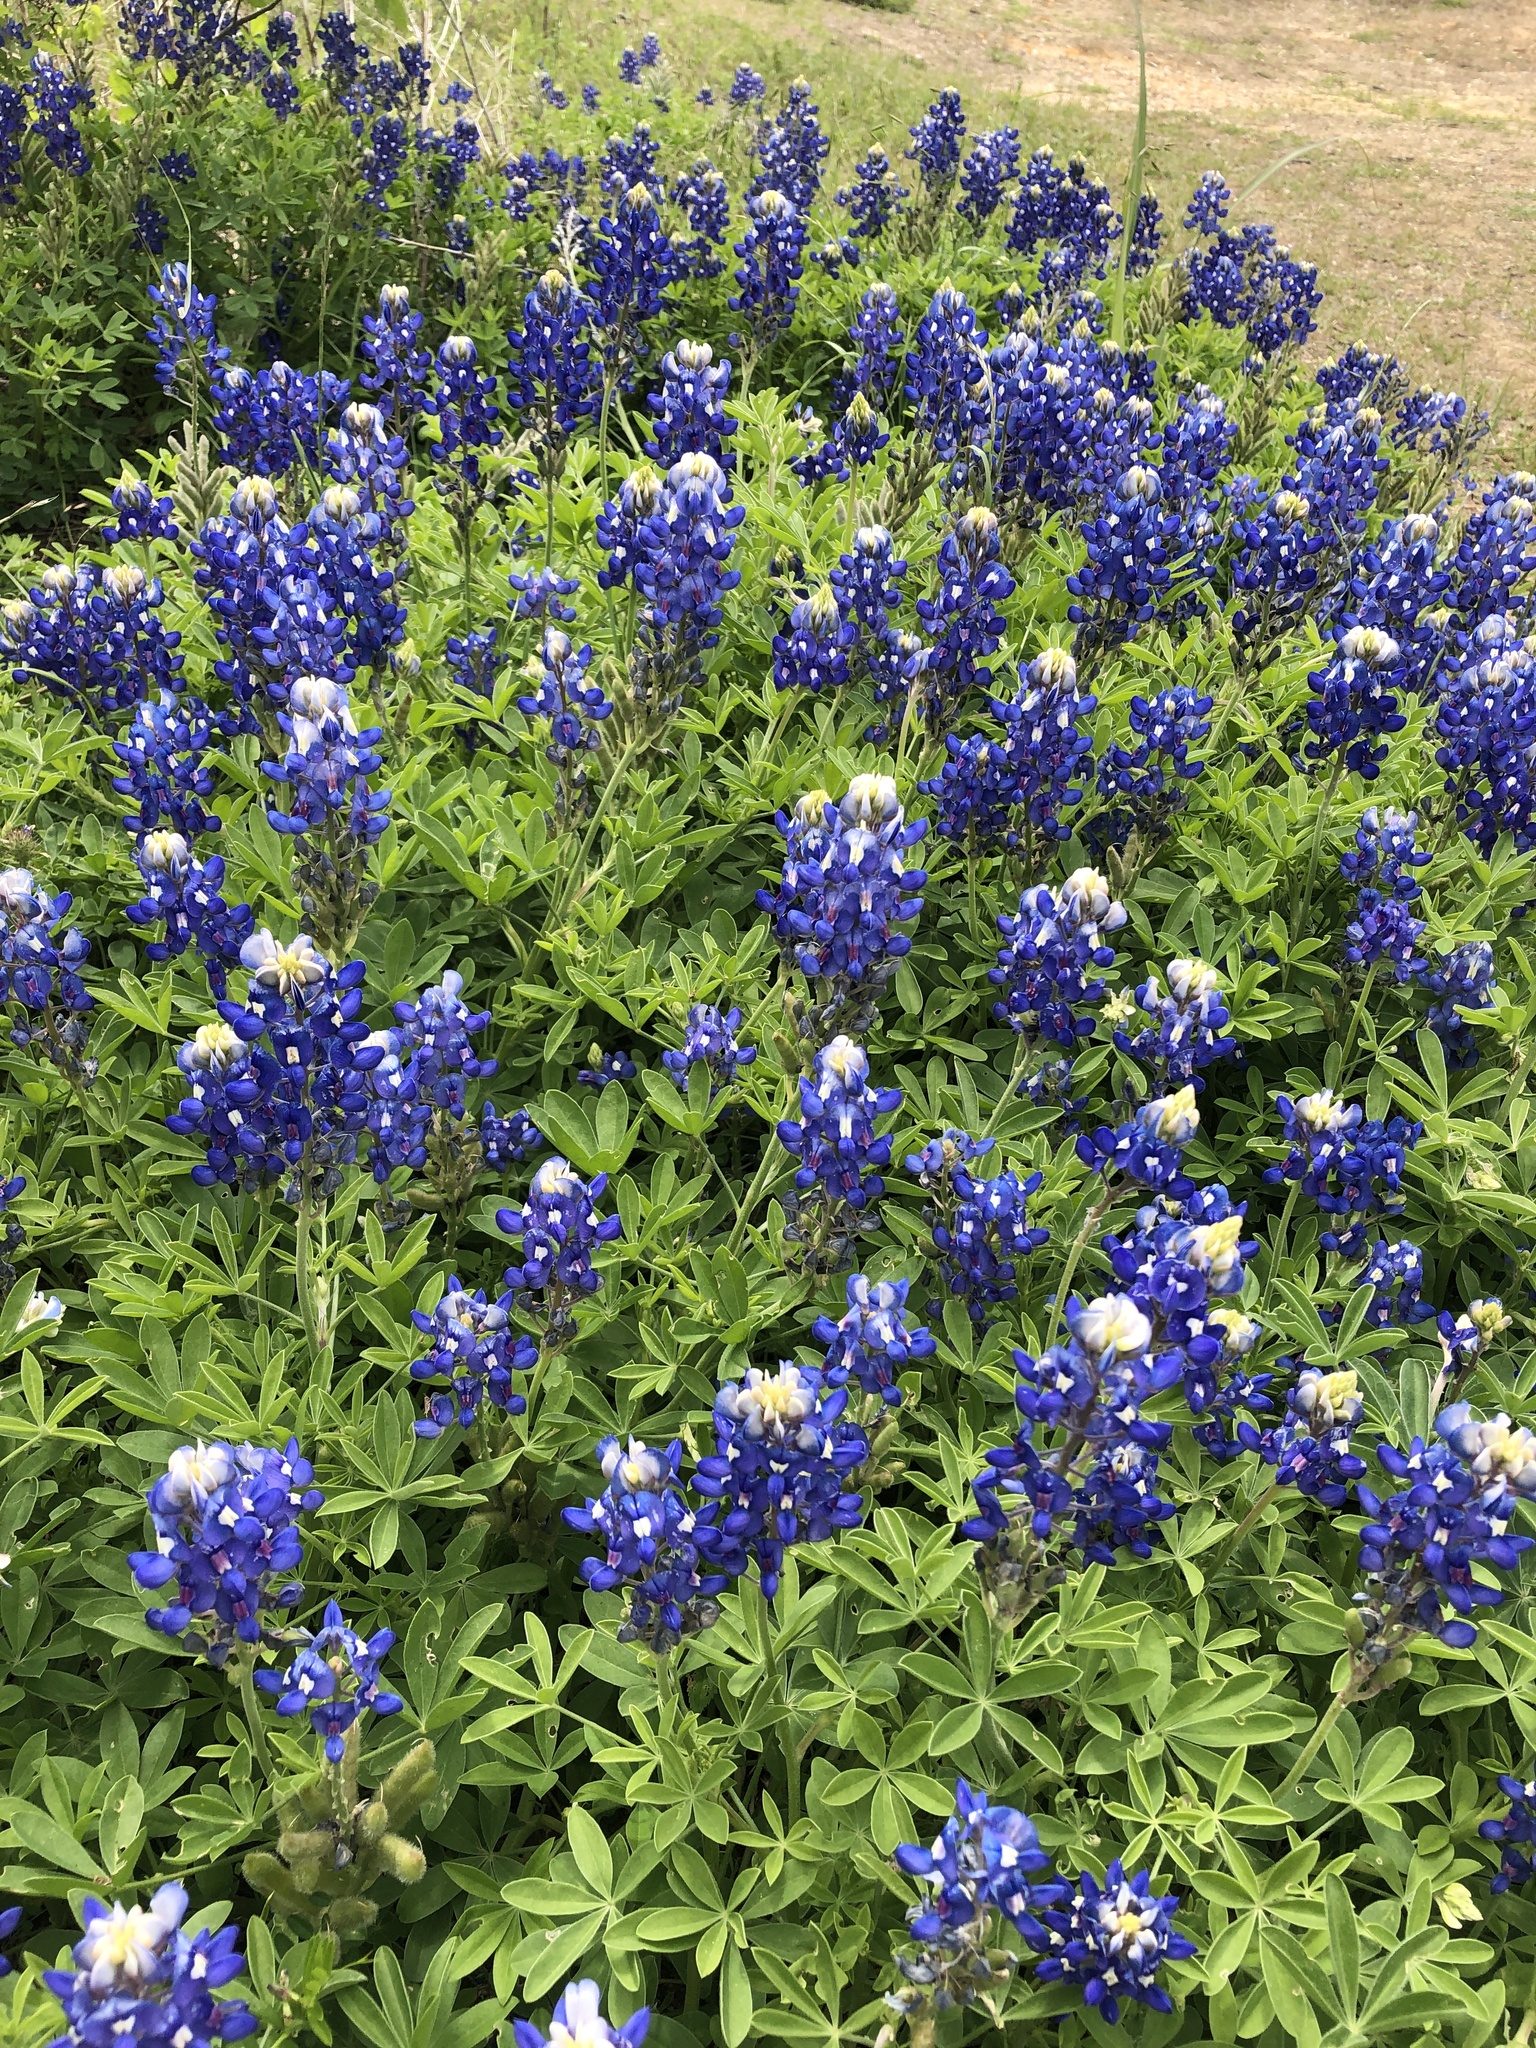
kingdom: Plantae
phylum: Tracheophyta
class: Magnoliopsida
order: Fabales
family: Fabaceae
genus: Lupinus
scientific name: Lupinus texensis
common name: Texas bluebonnet
